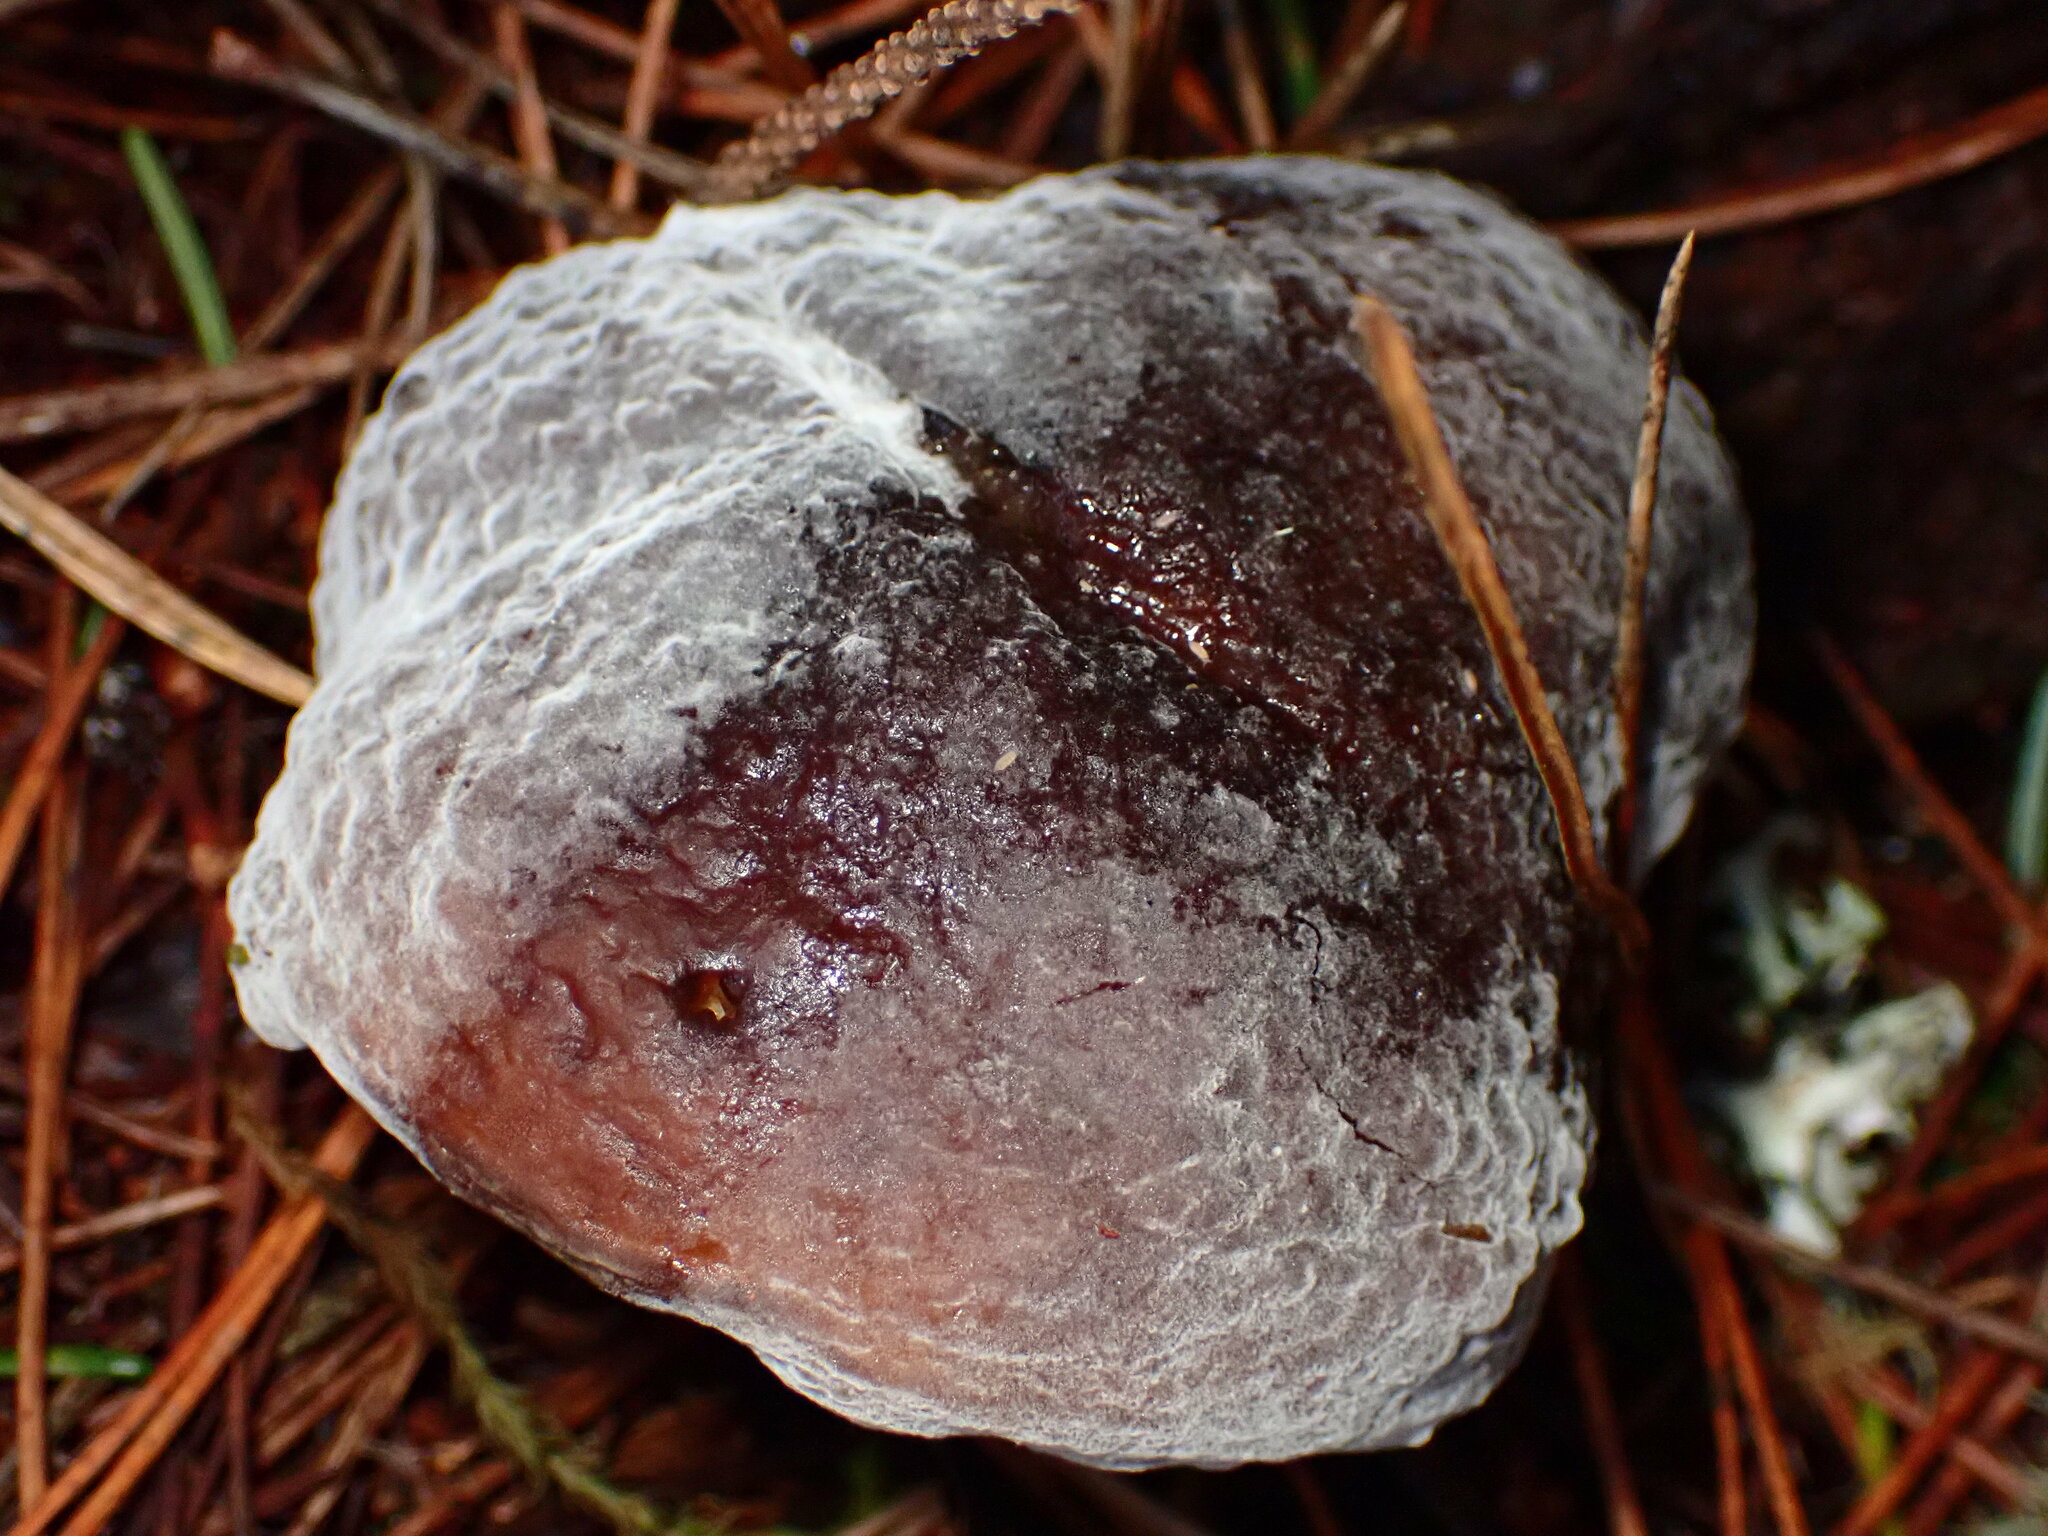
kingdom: Fungi
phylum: Ascomycota
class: Sordariomycetes
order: Hypocreales
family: Hypocreaceae
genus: Hypomyces
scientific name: Hypomyces microspermus
